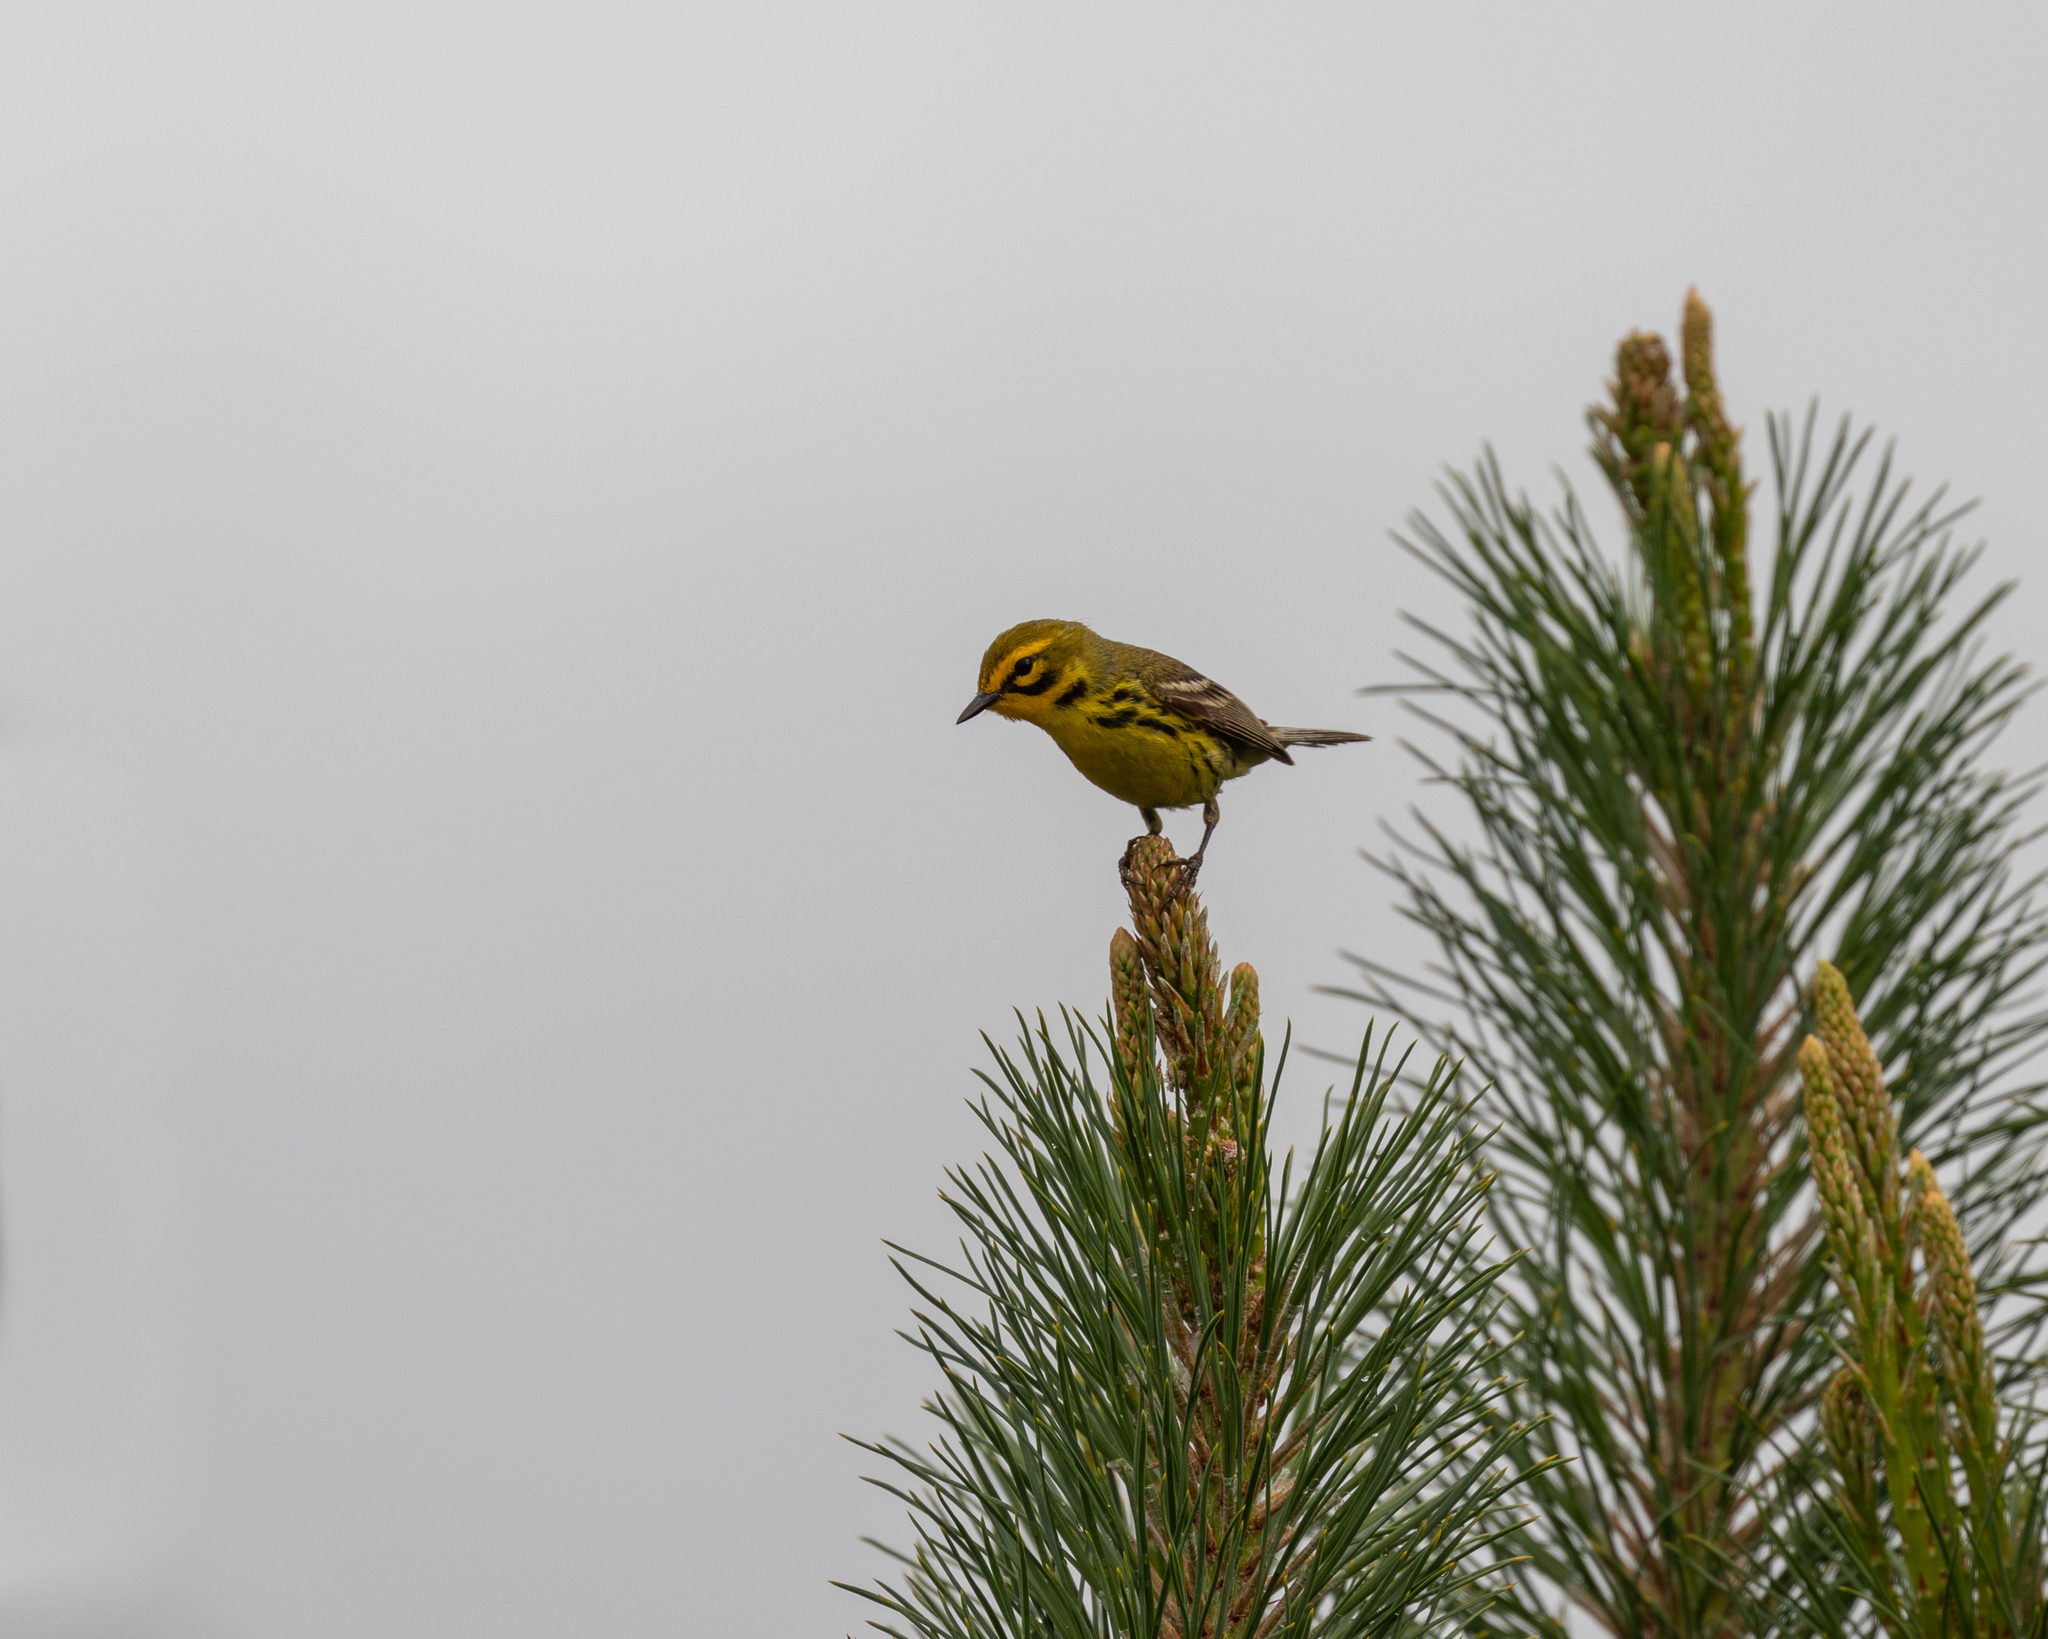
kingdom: Animalia
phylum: Chordata
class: Aves
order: Passeriformes
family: Parulidae
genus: Setophaga
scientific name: Setophaga discolor
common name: Prairie warbler
